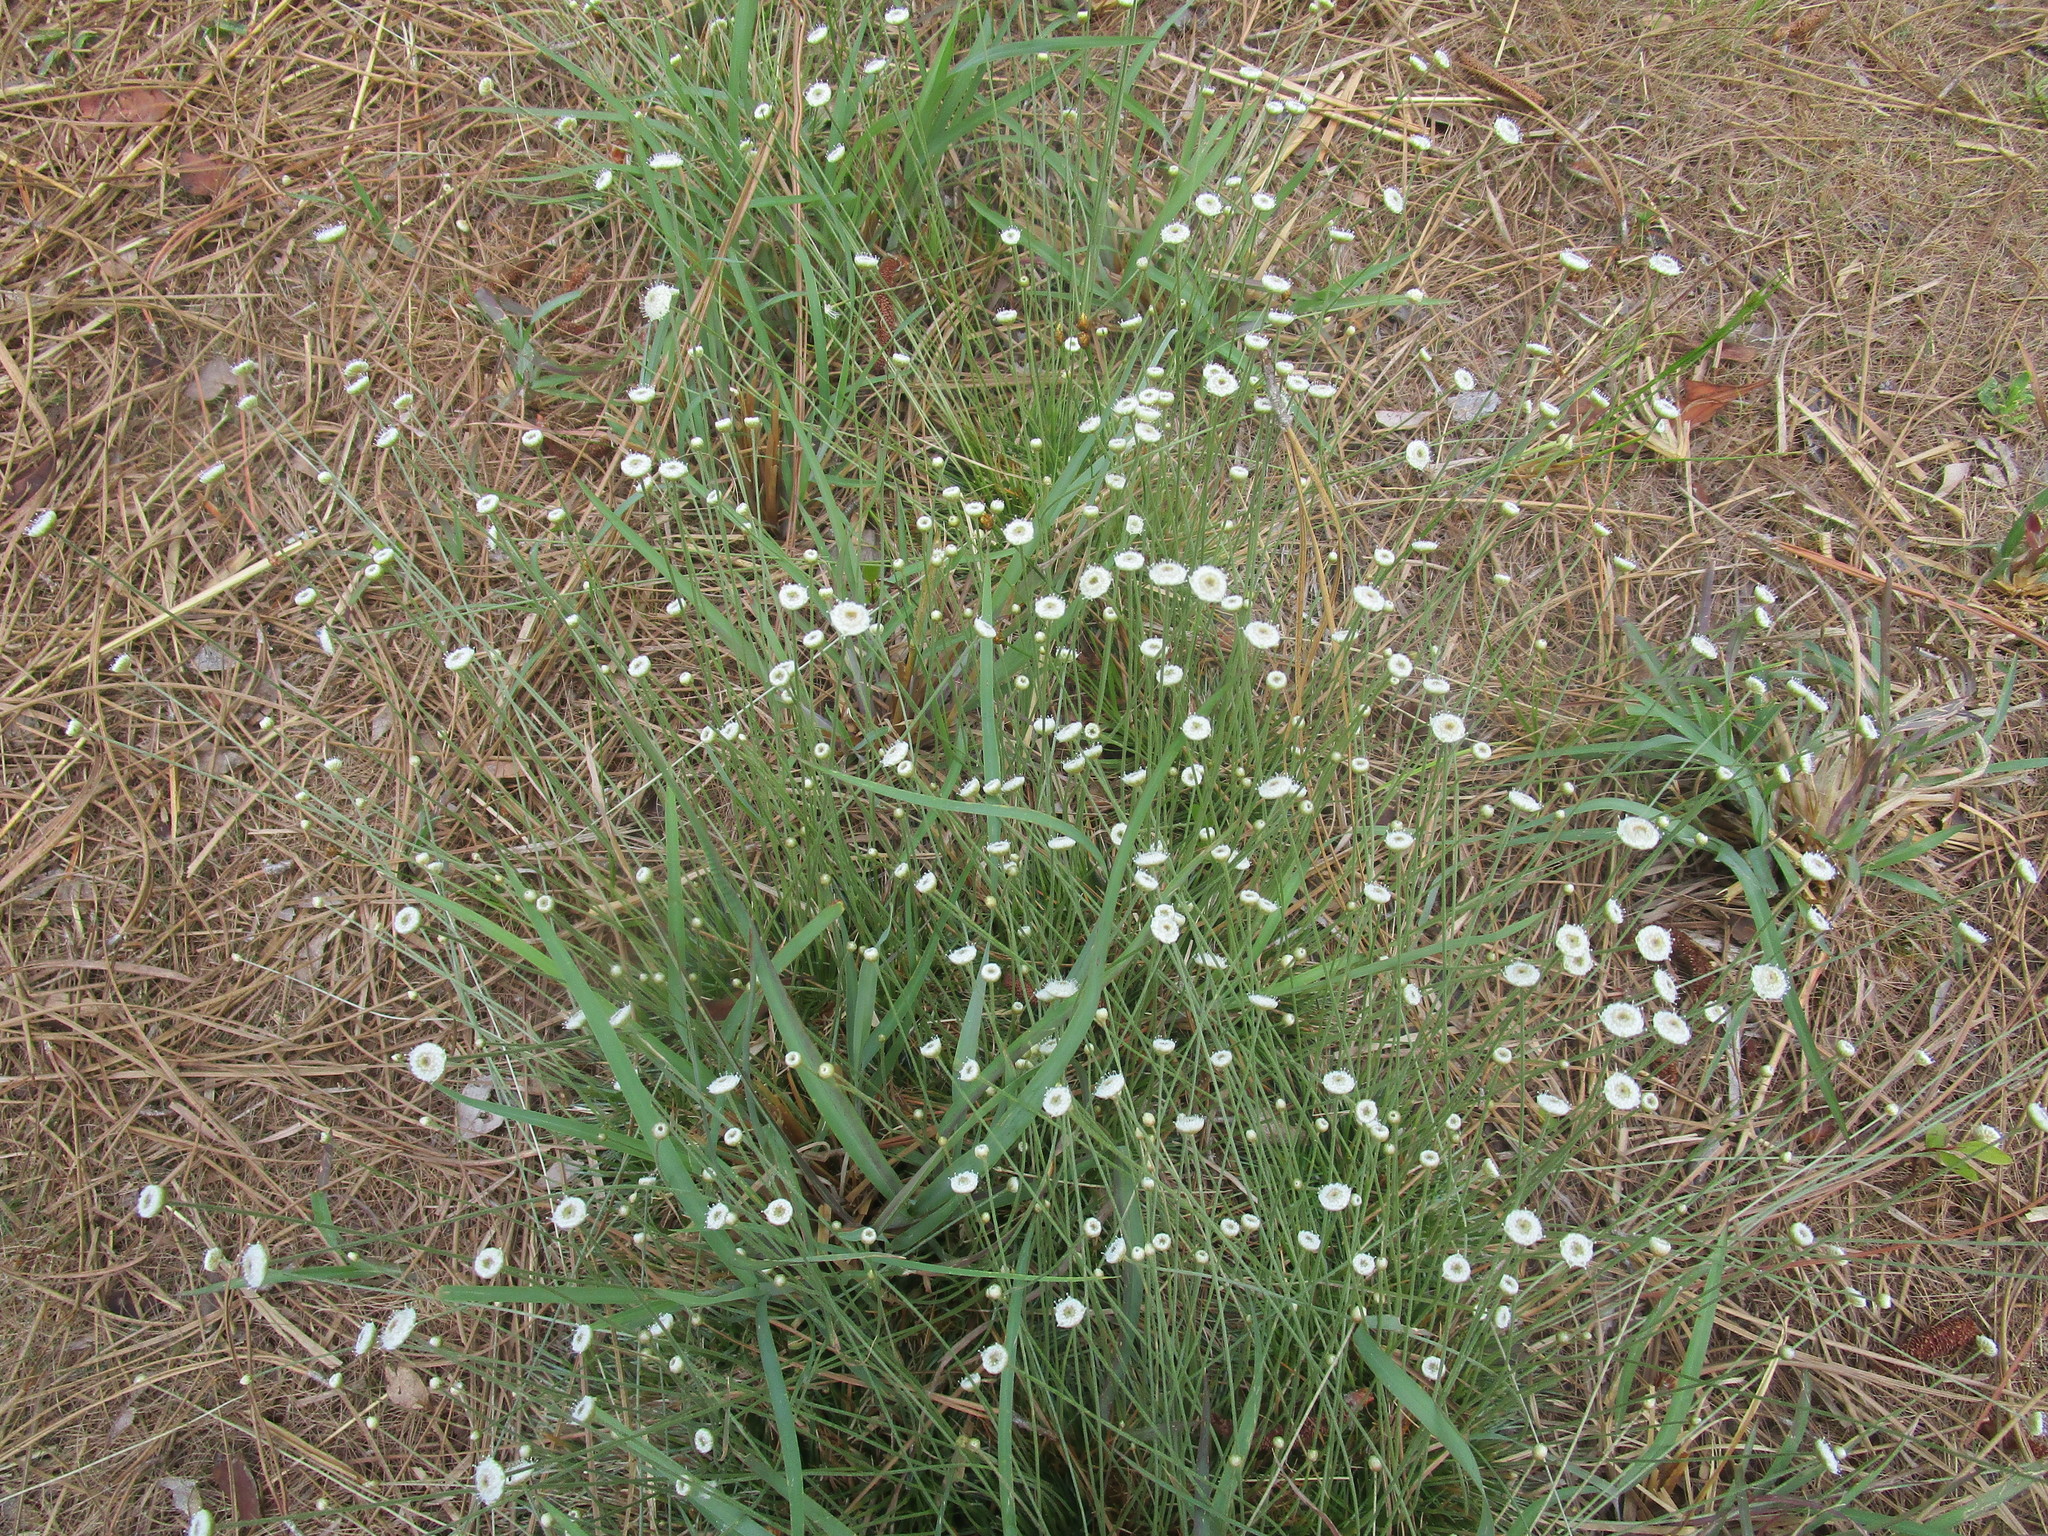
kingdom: Plantae
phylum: Tracheophyta
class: Liliopsida
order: Poales
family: Eriocaulaceae
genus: Syngonanthus
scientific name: Syngonanthus flavidulus
